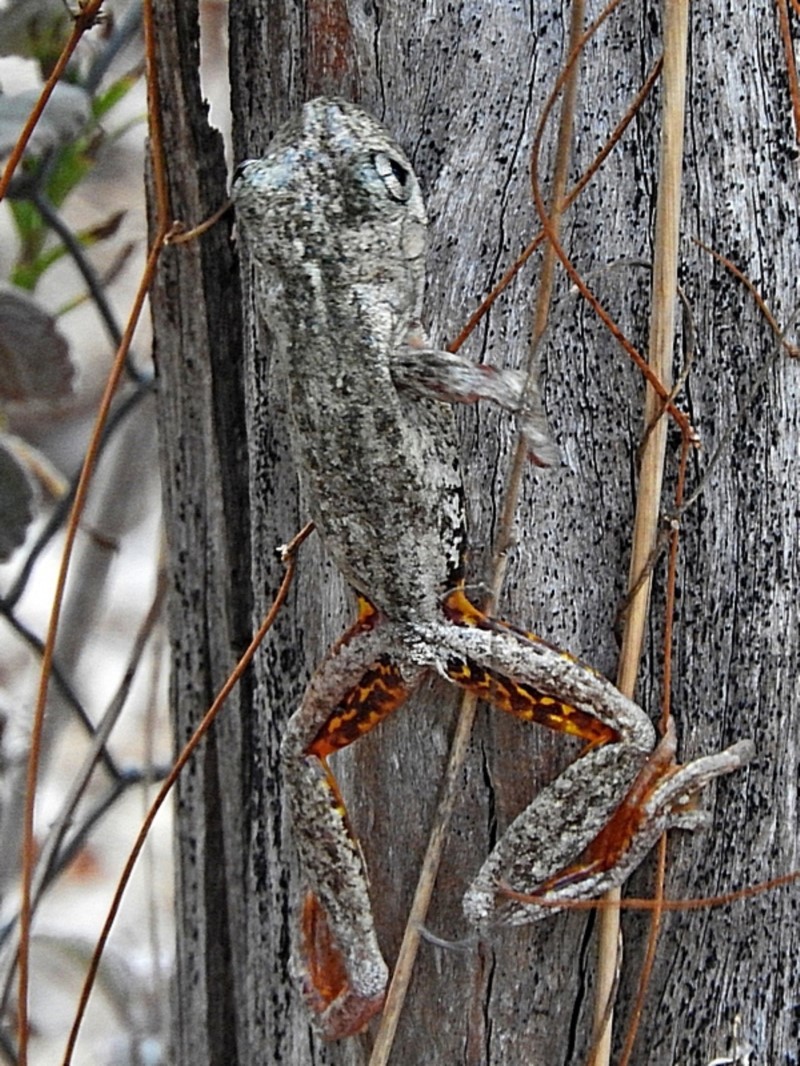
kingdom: Animalia
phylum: Chordata
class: Amphibia
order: Anura
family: Pelodryadidae
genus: Litoria
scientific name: Litoria peronii
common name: Emerald spotted treefrog
